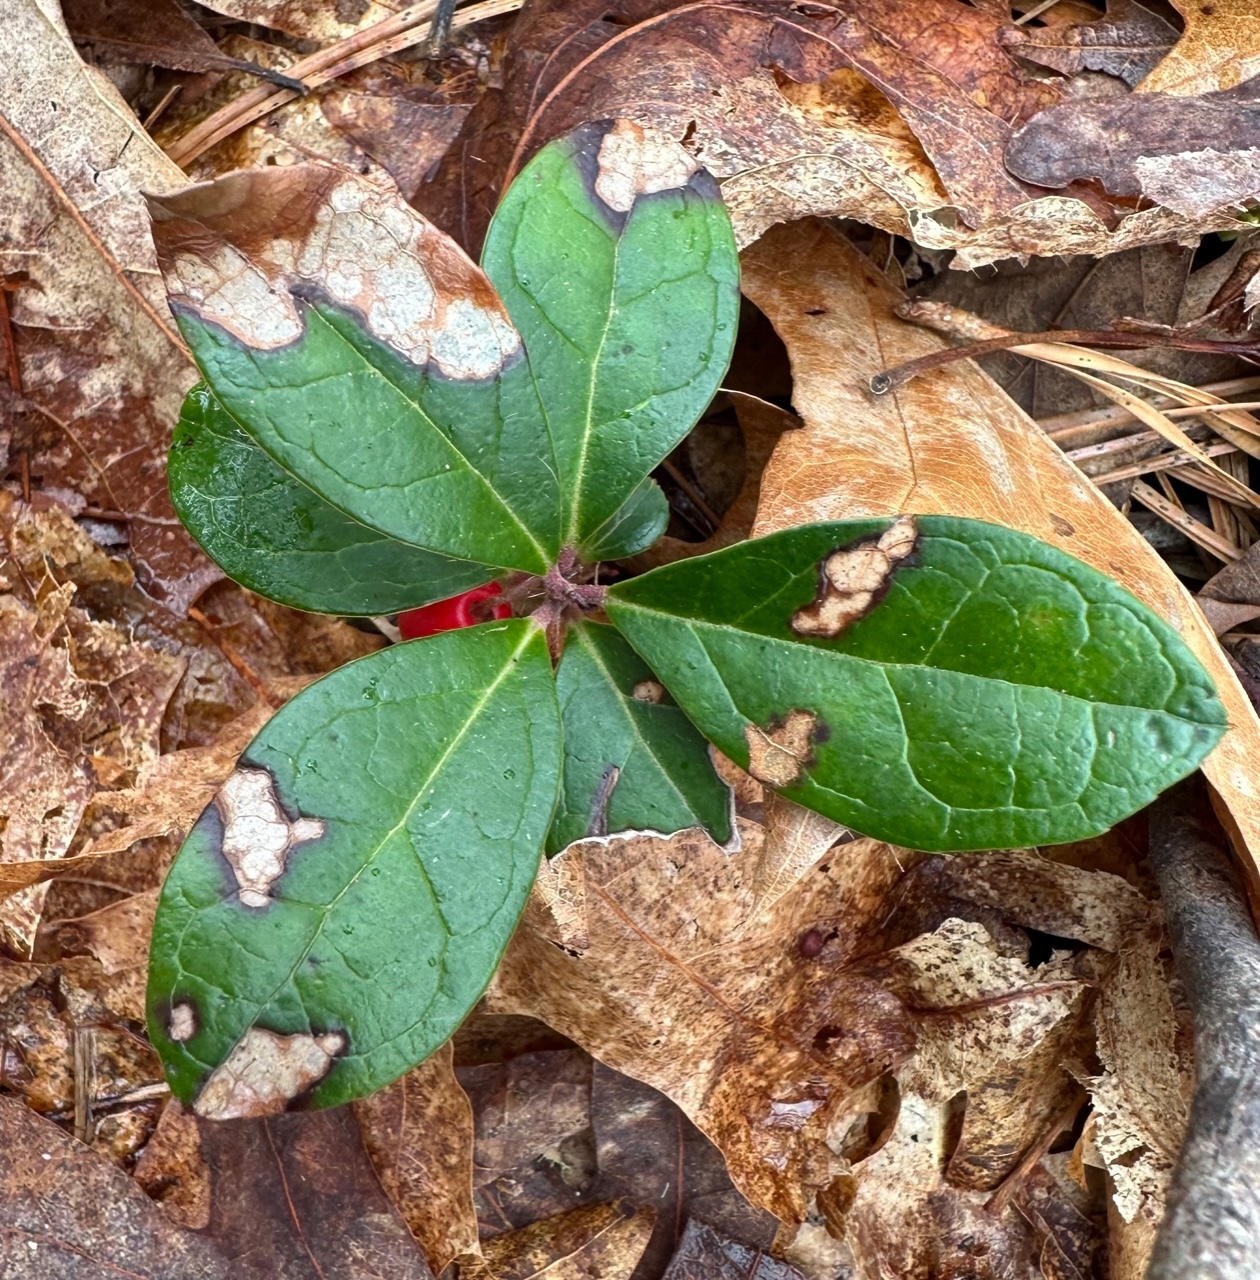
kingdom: Plantae
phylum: Tracheophyta
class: Magnoliopsida
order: Ericales
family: Ericaceae
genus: Gaultheria
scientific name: Gaultheria procumbens
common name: Checkerberry
